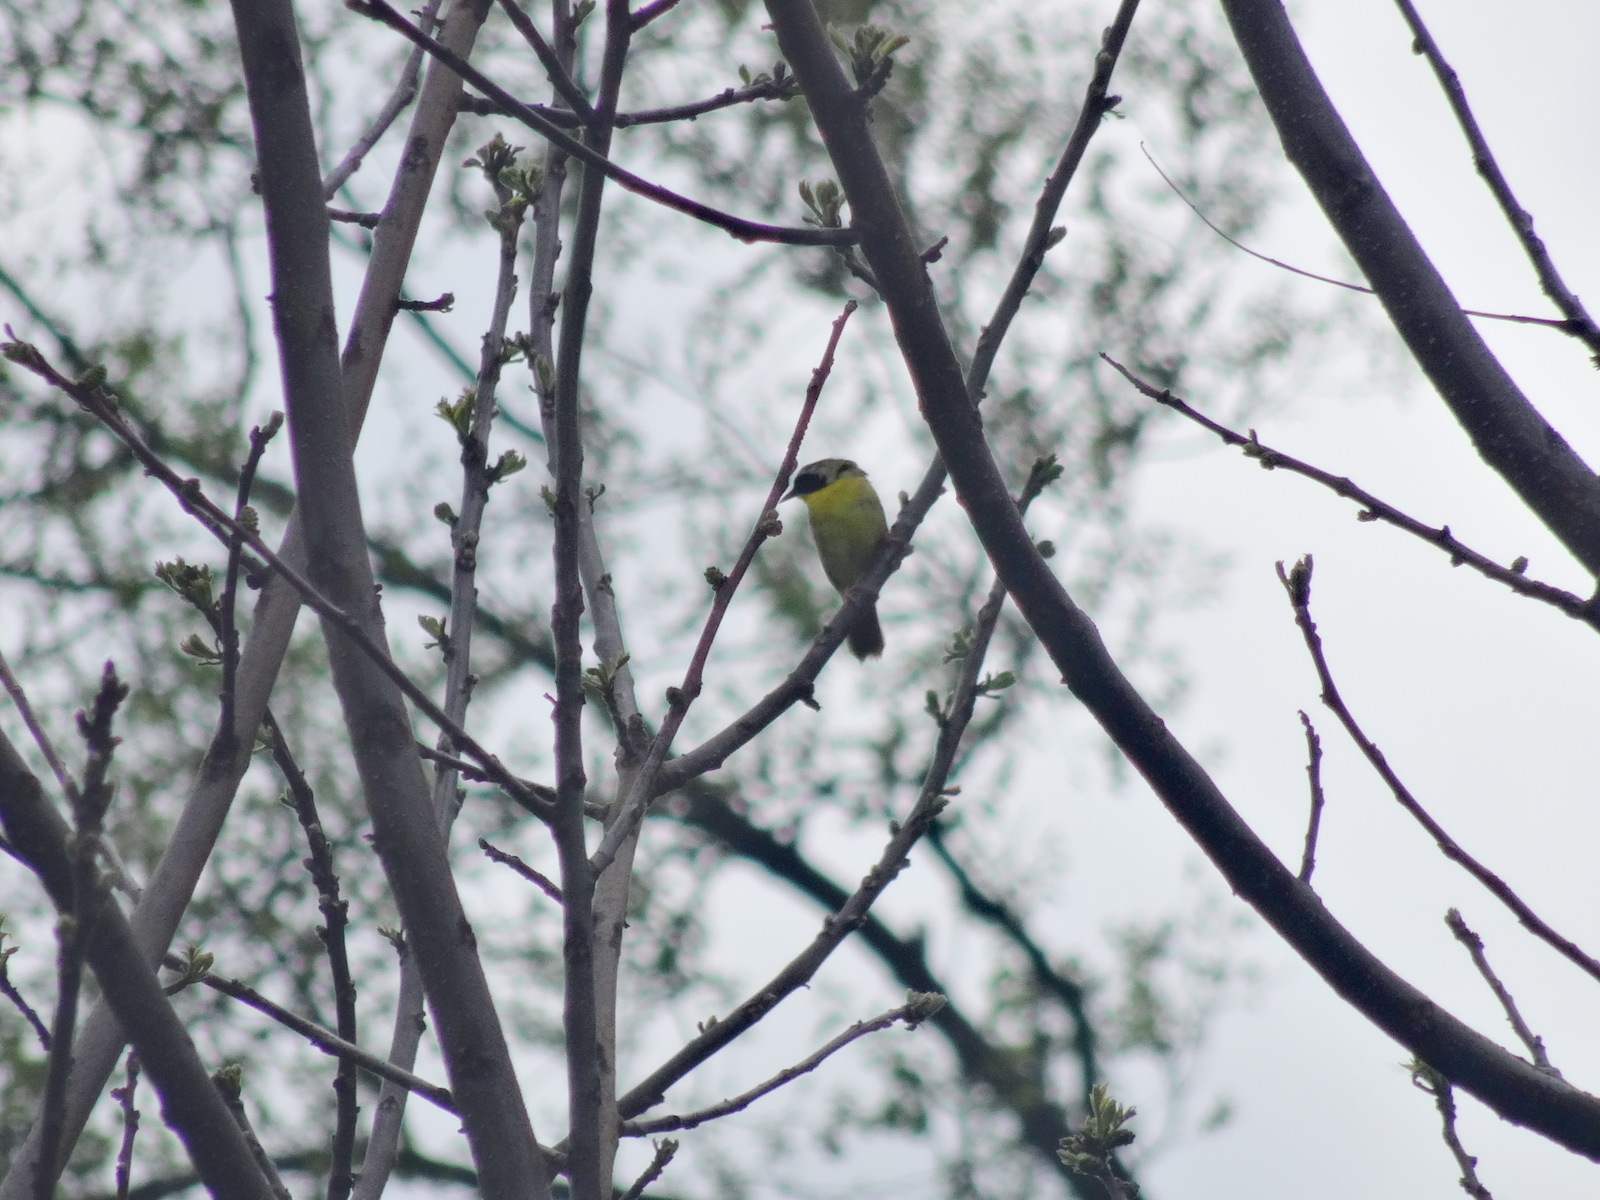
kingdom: Animalia
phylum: Chordata
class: Aves
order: Passeriformes
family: Parulidae
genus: Geothlypis
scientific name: Geothlypis trichas
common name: Common yellowthroat
